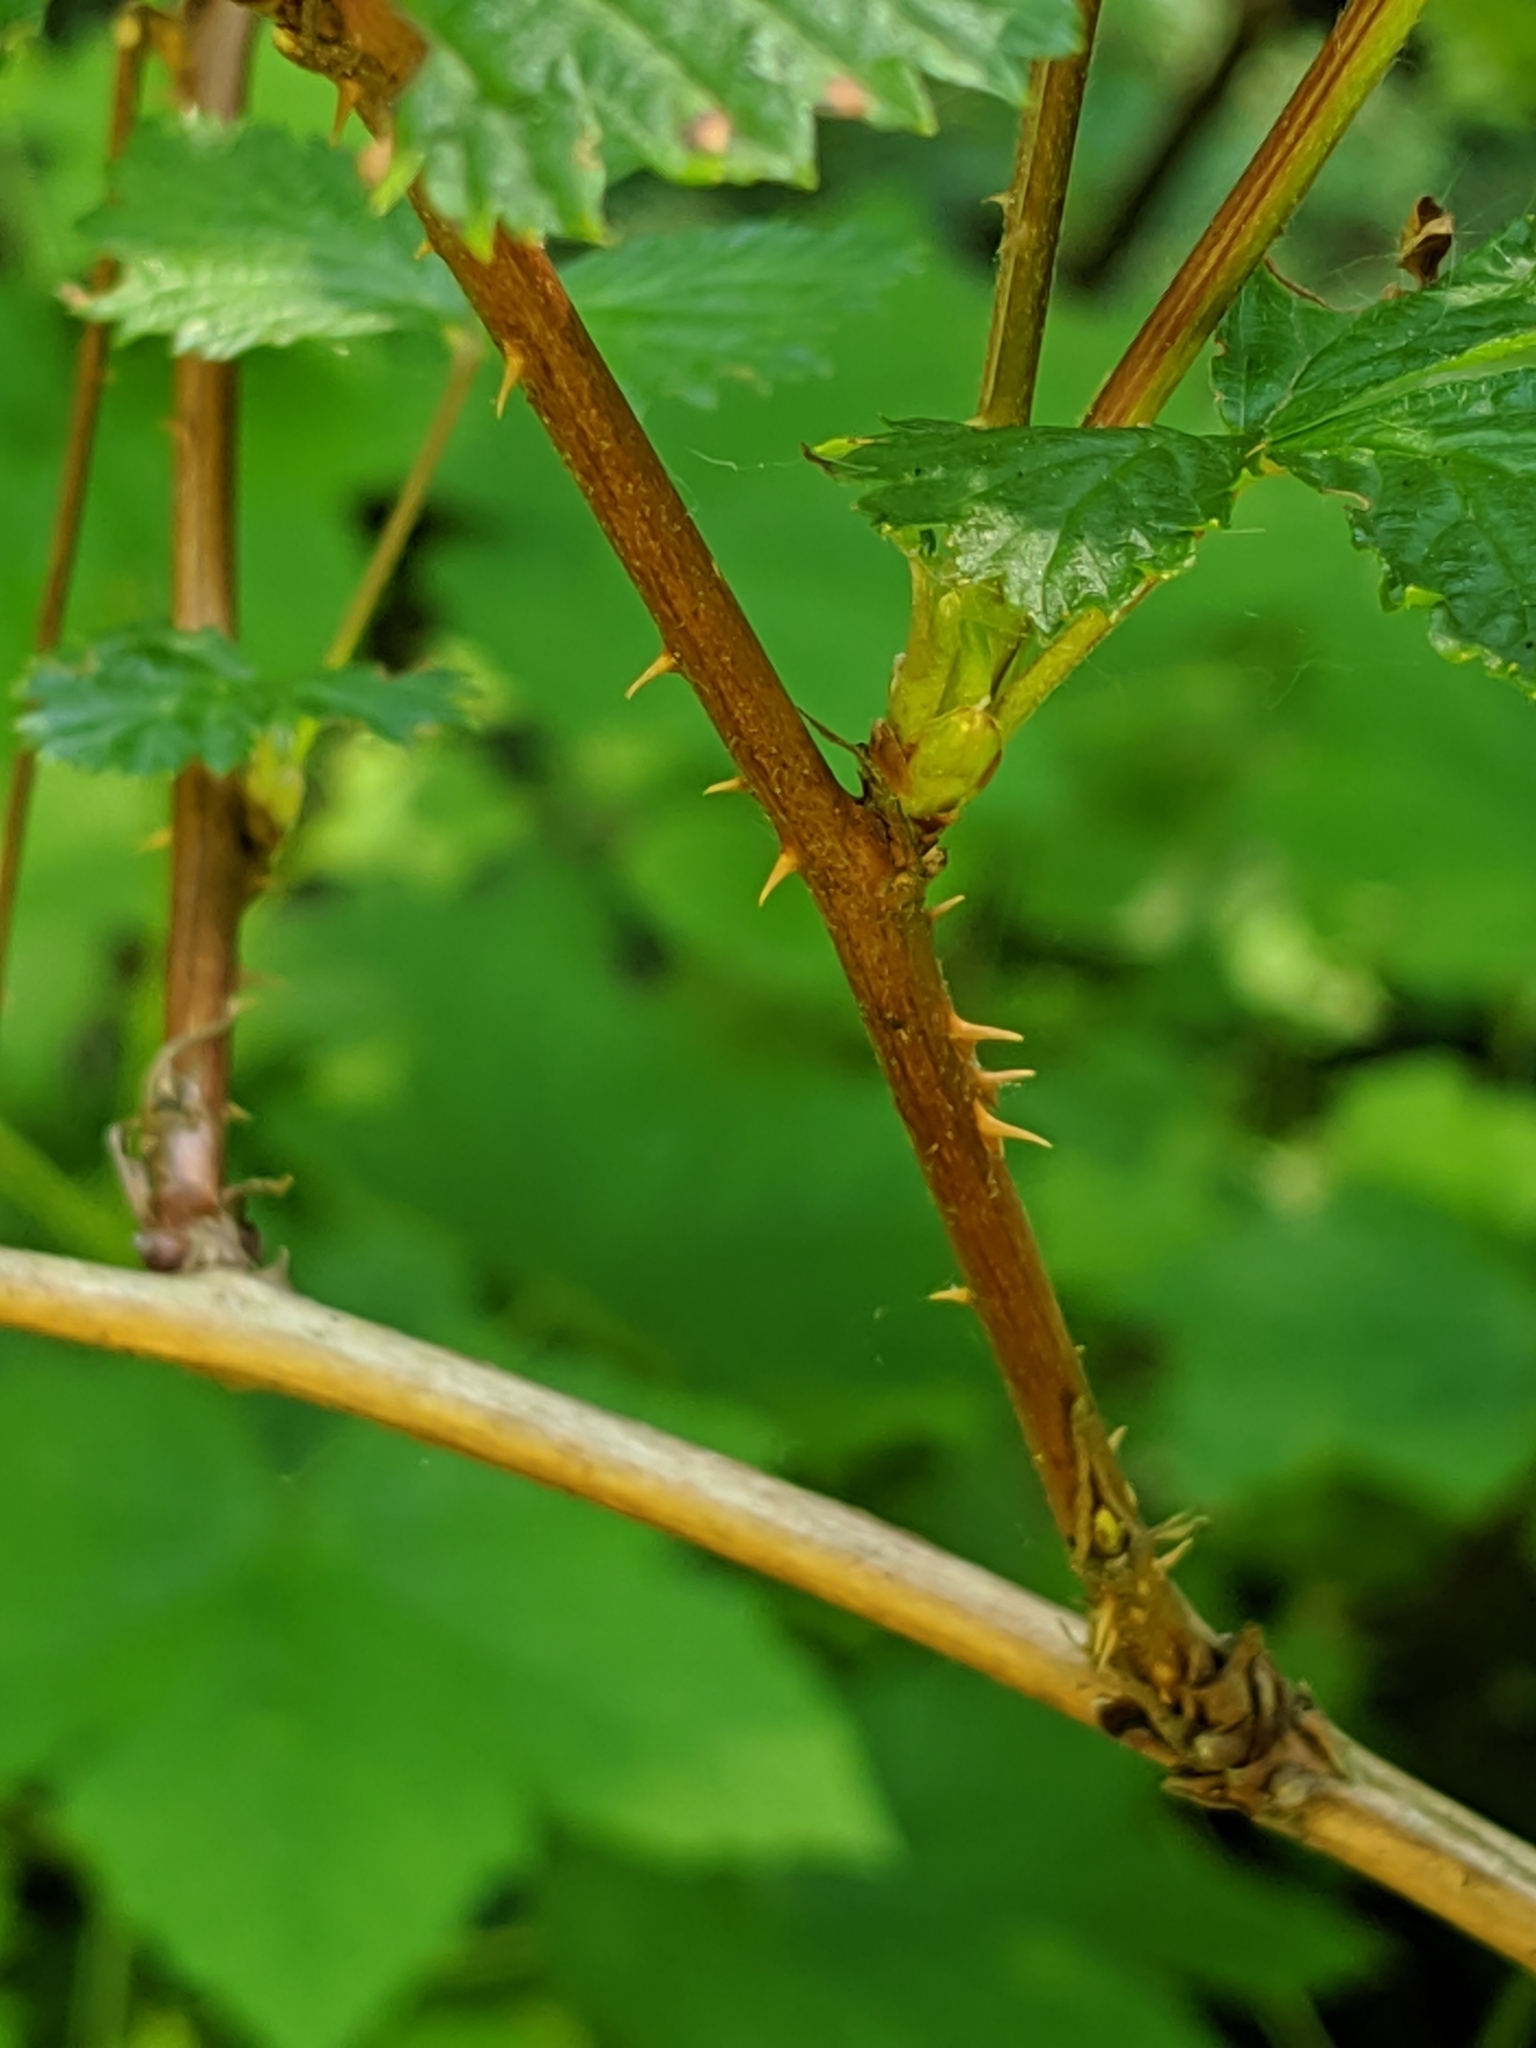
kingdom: Plantae
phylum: Tracheophyta
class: Magnoliopsida
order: Rosales
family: Rosaceae
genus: Rubus
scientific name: Rubus spectabilis
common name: Salmonberry
